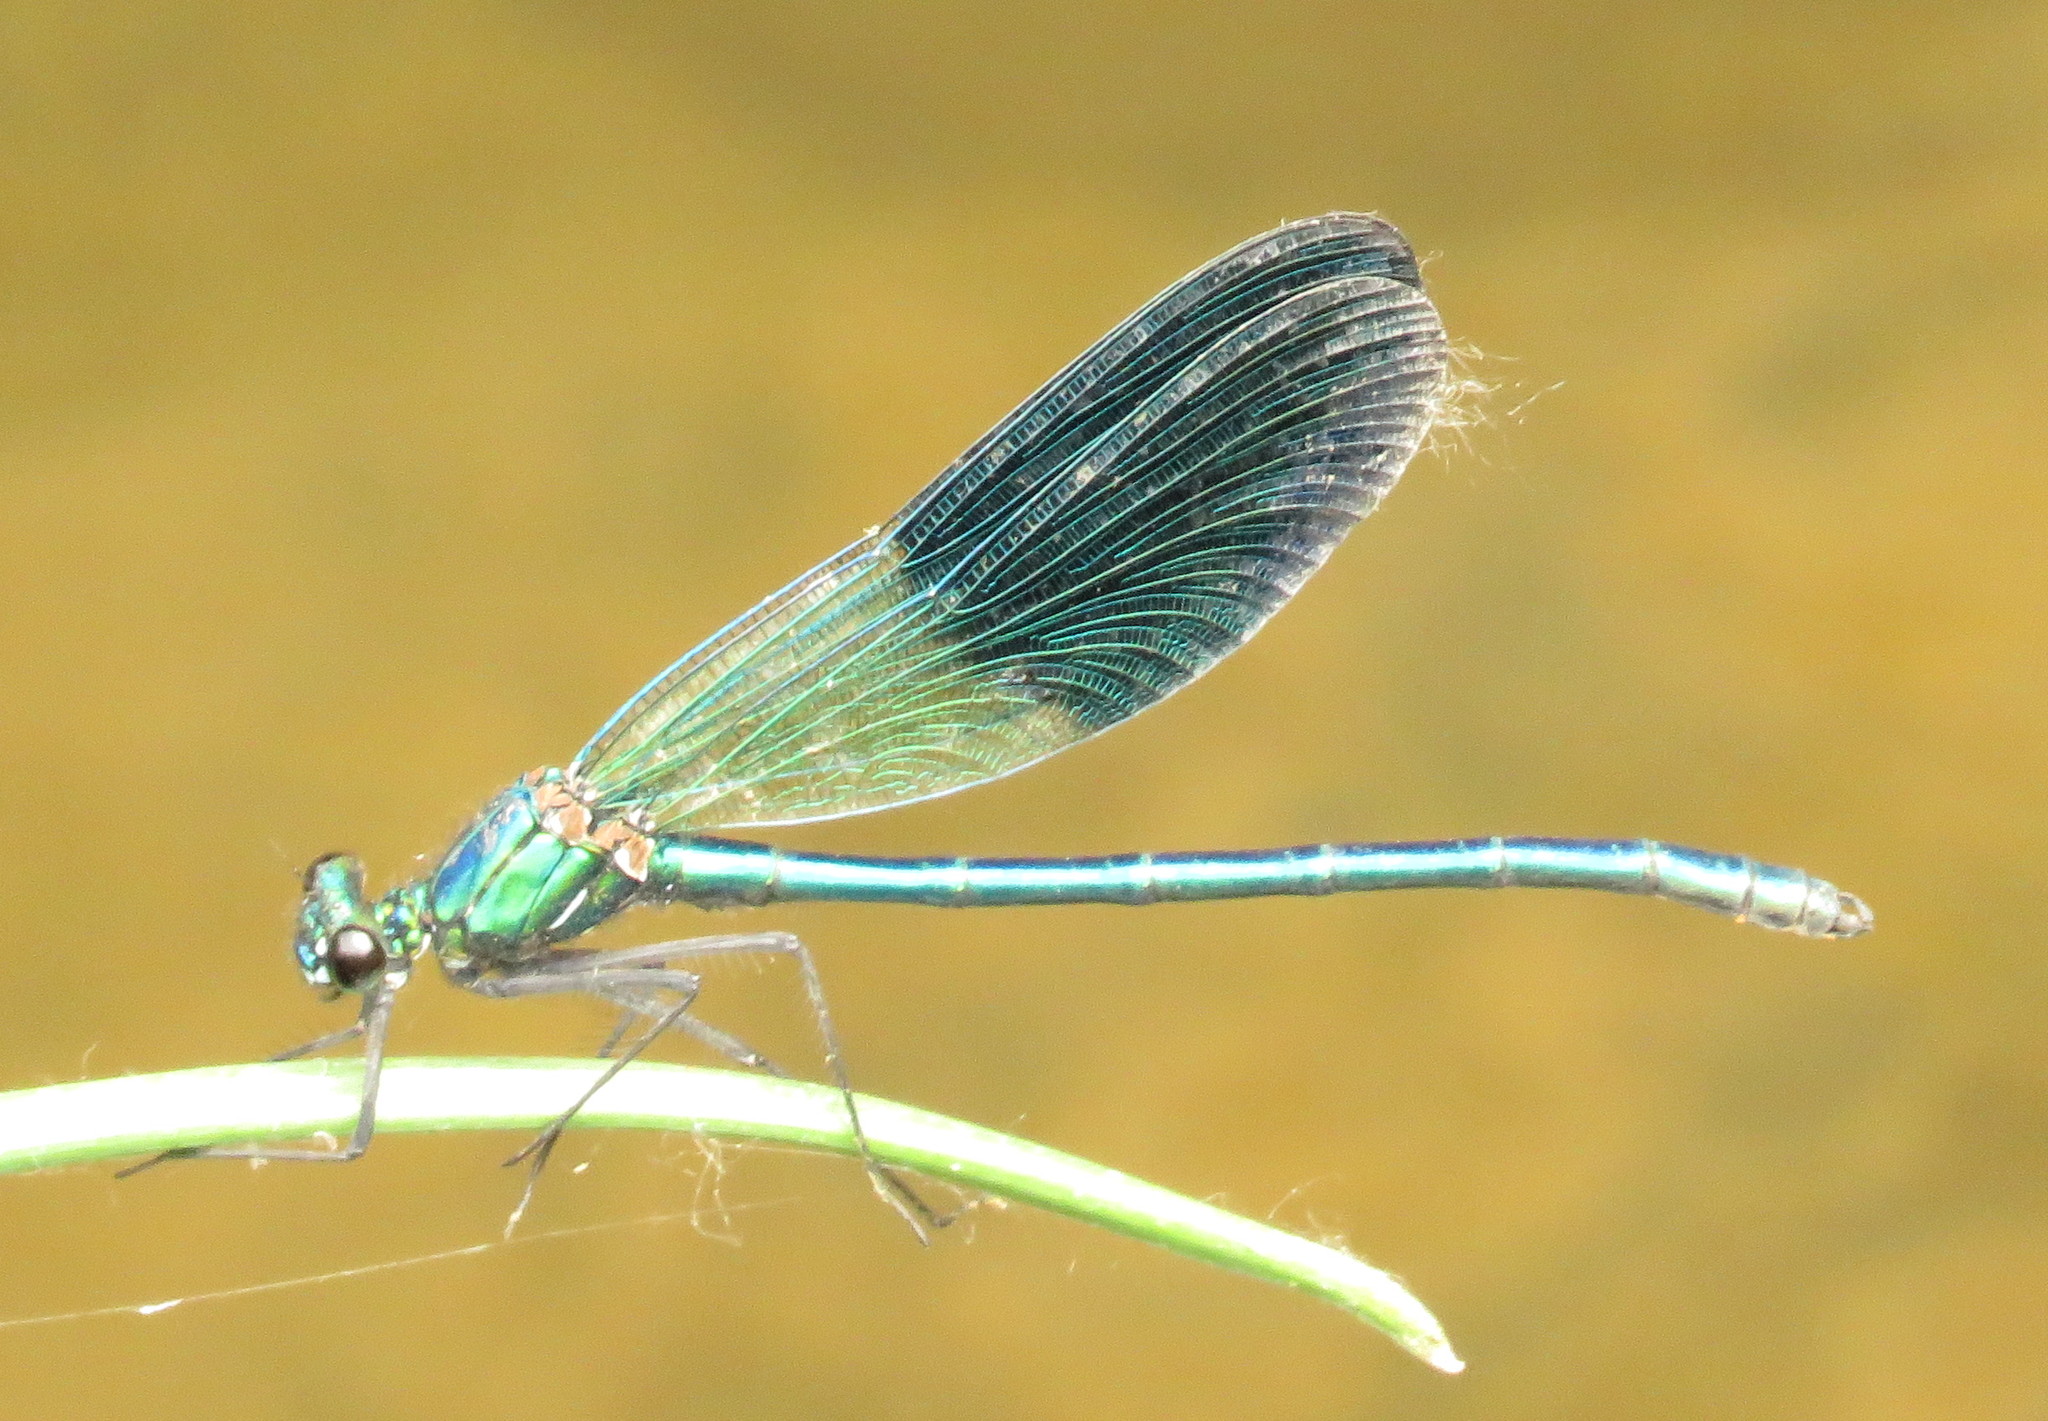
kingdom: Animalia
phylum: Arthropoda
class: Insecta
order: Odonata
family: Calopterygidae
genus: Calopteryx
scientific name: Calopteryx splendens
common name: Banded demoiselle
